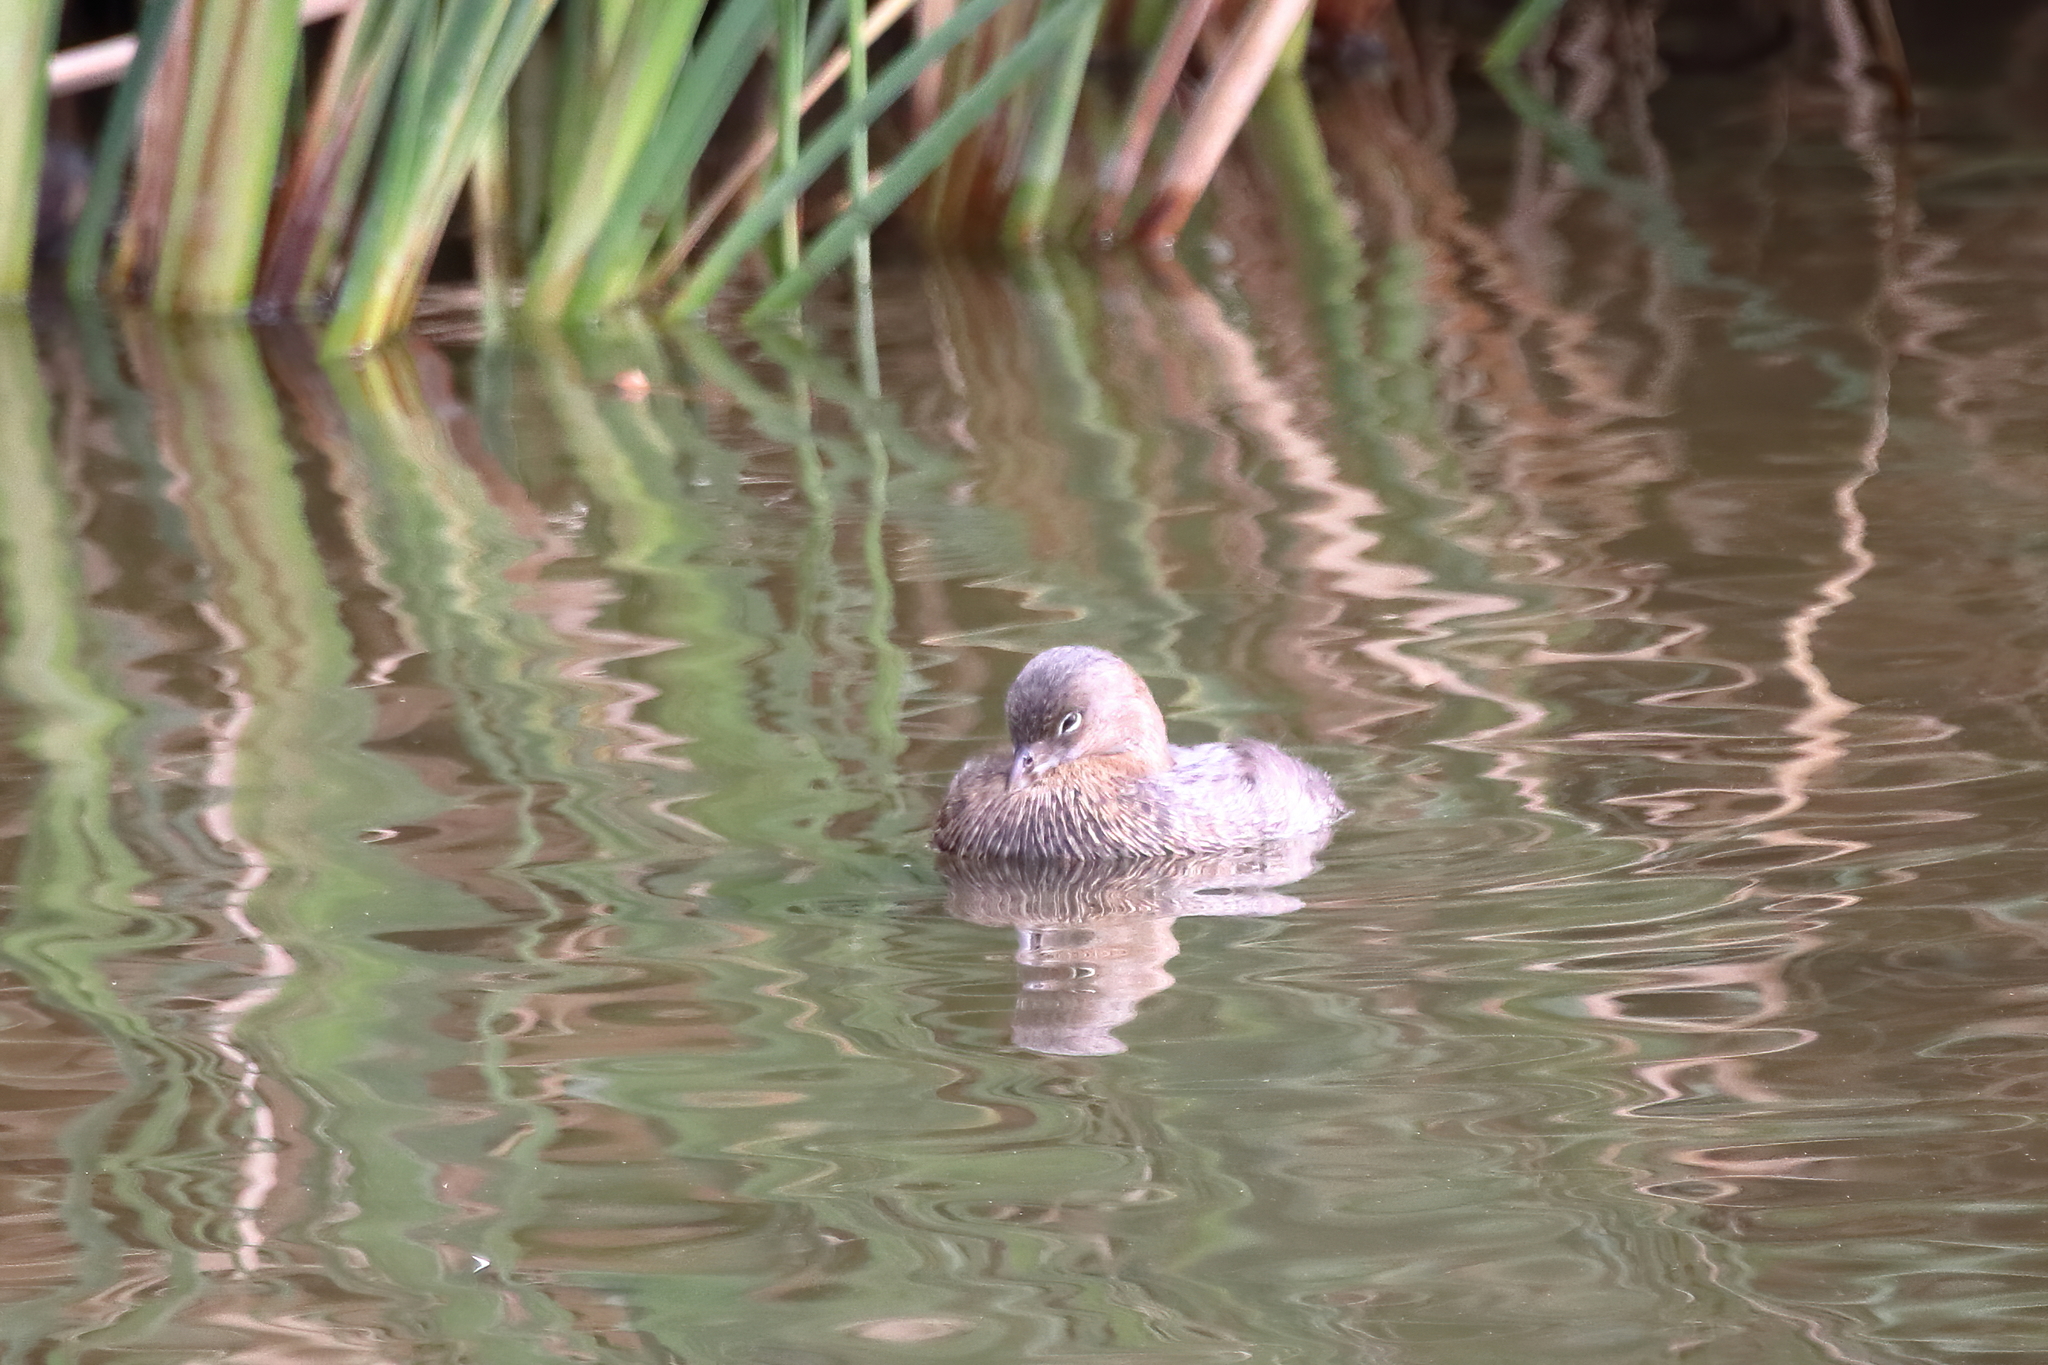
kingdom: Animalia
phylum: Chordata
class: Aves
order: Podicipediformes
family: Podicipedidae
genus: Podilymbus
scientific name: Podilymbus podiceps
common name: Pied-billed grebe
